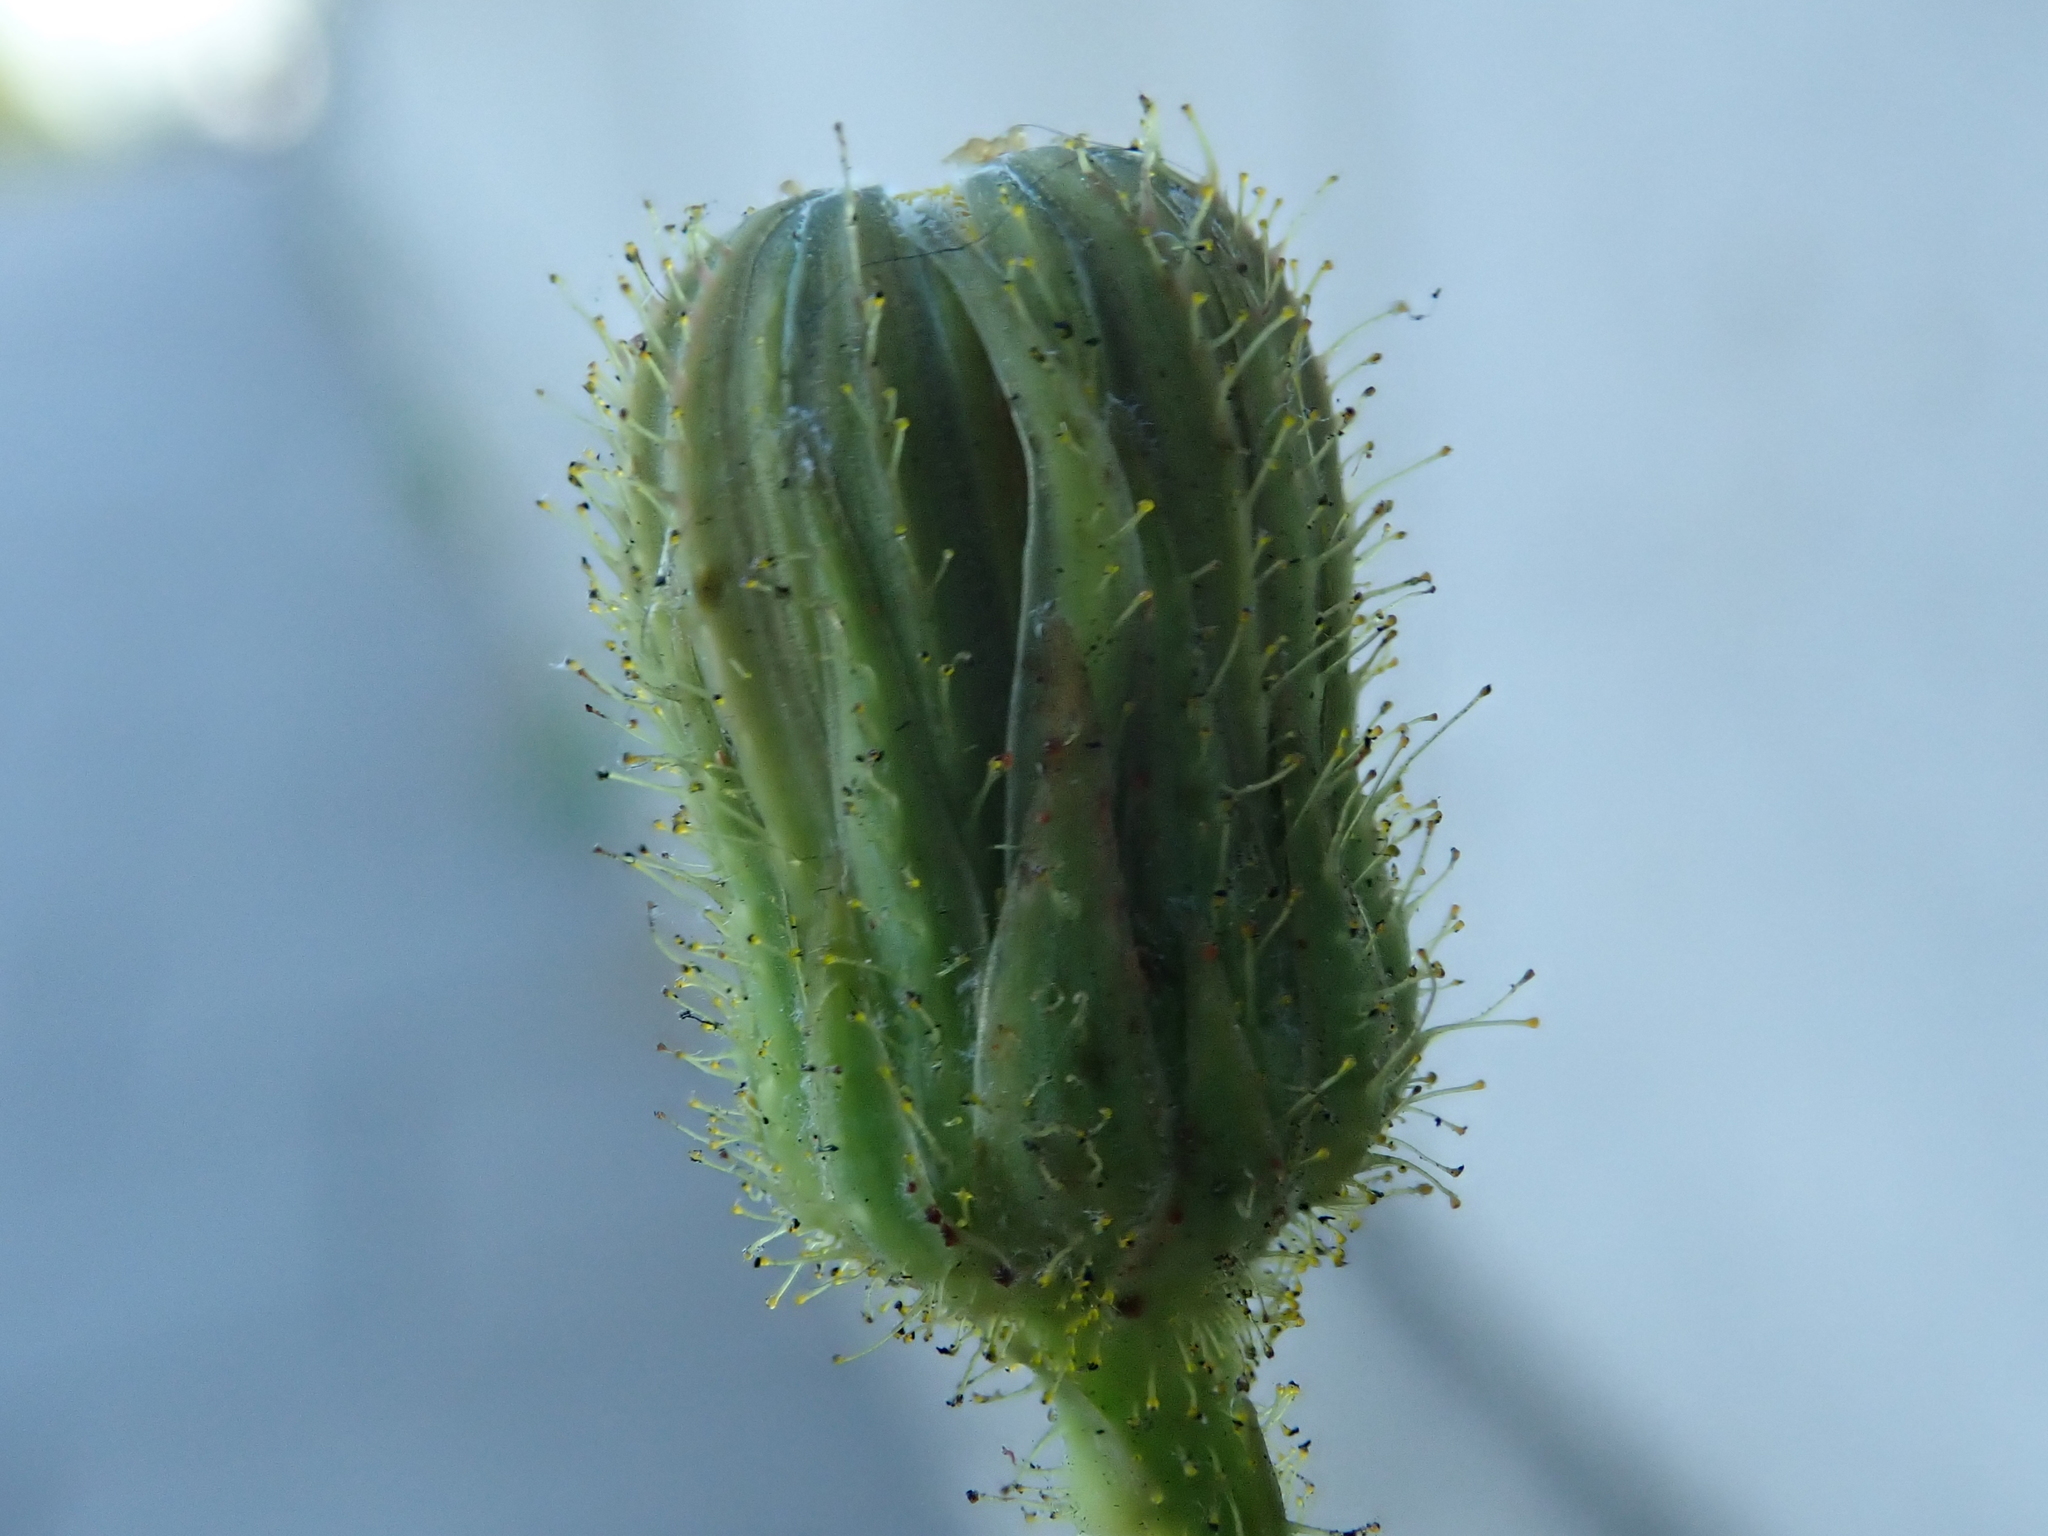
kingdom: Plantae
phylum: Tracheophyta
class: Magnoliopsida
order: Asterales
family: Asteraceae
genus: Sonchus
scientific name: Sonchus arvensis
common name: Perennial sow-thistle
